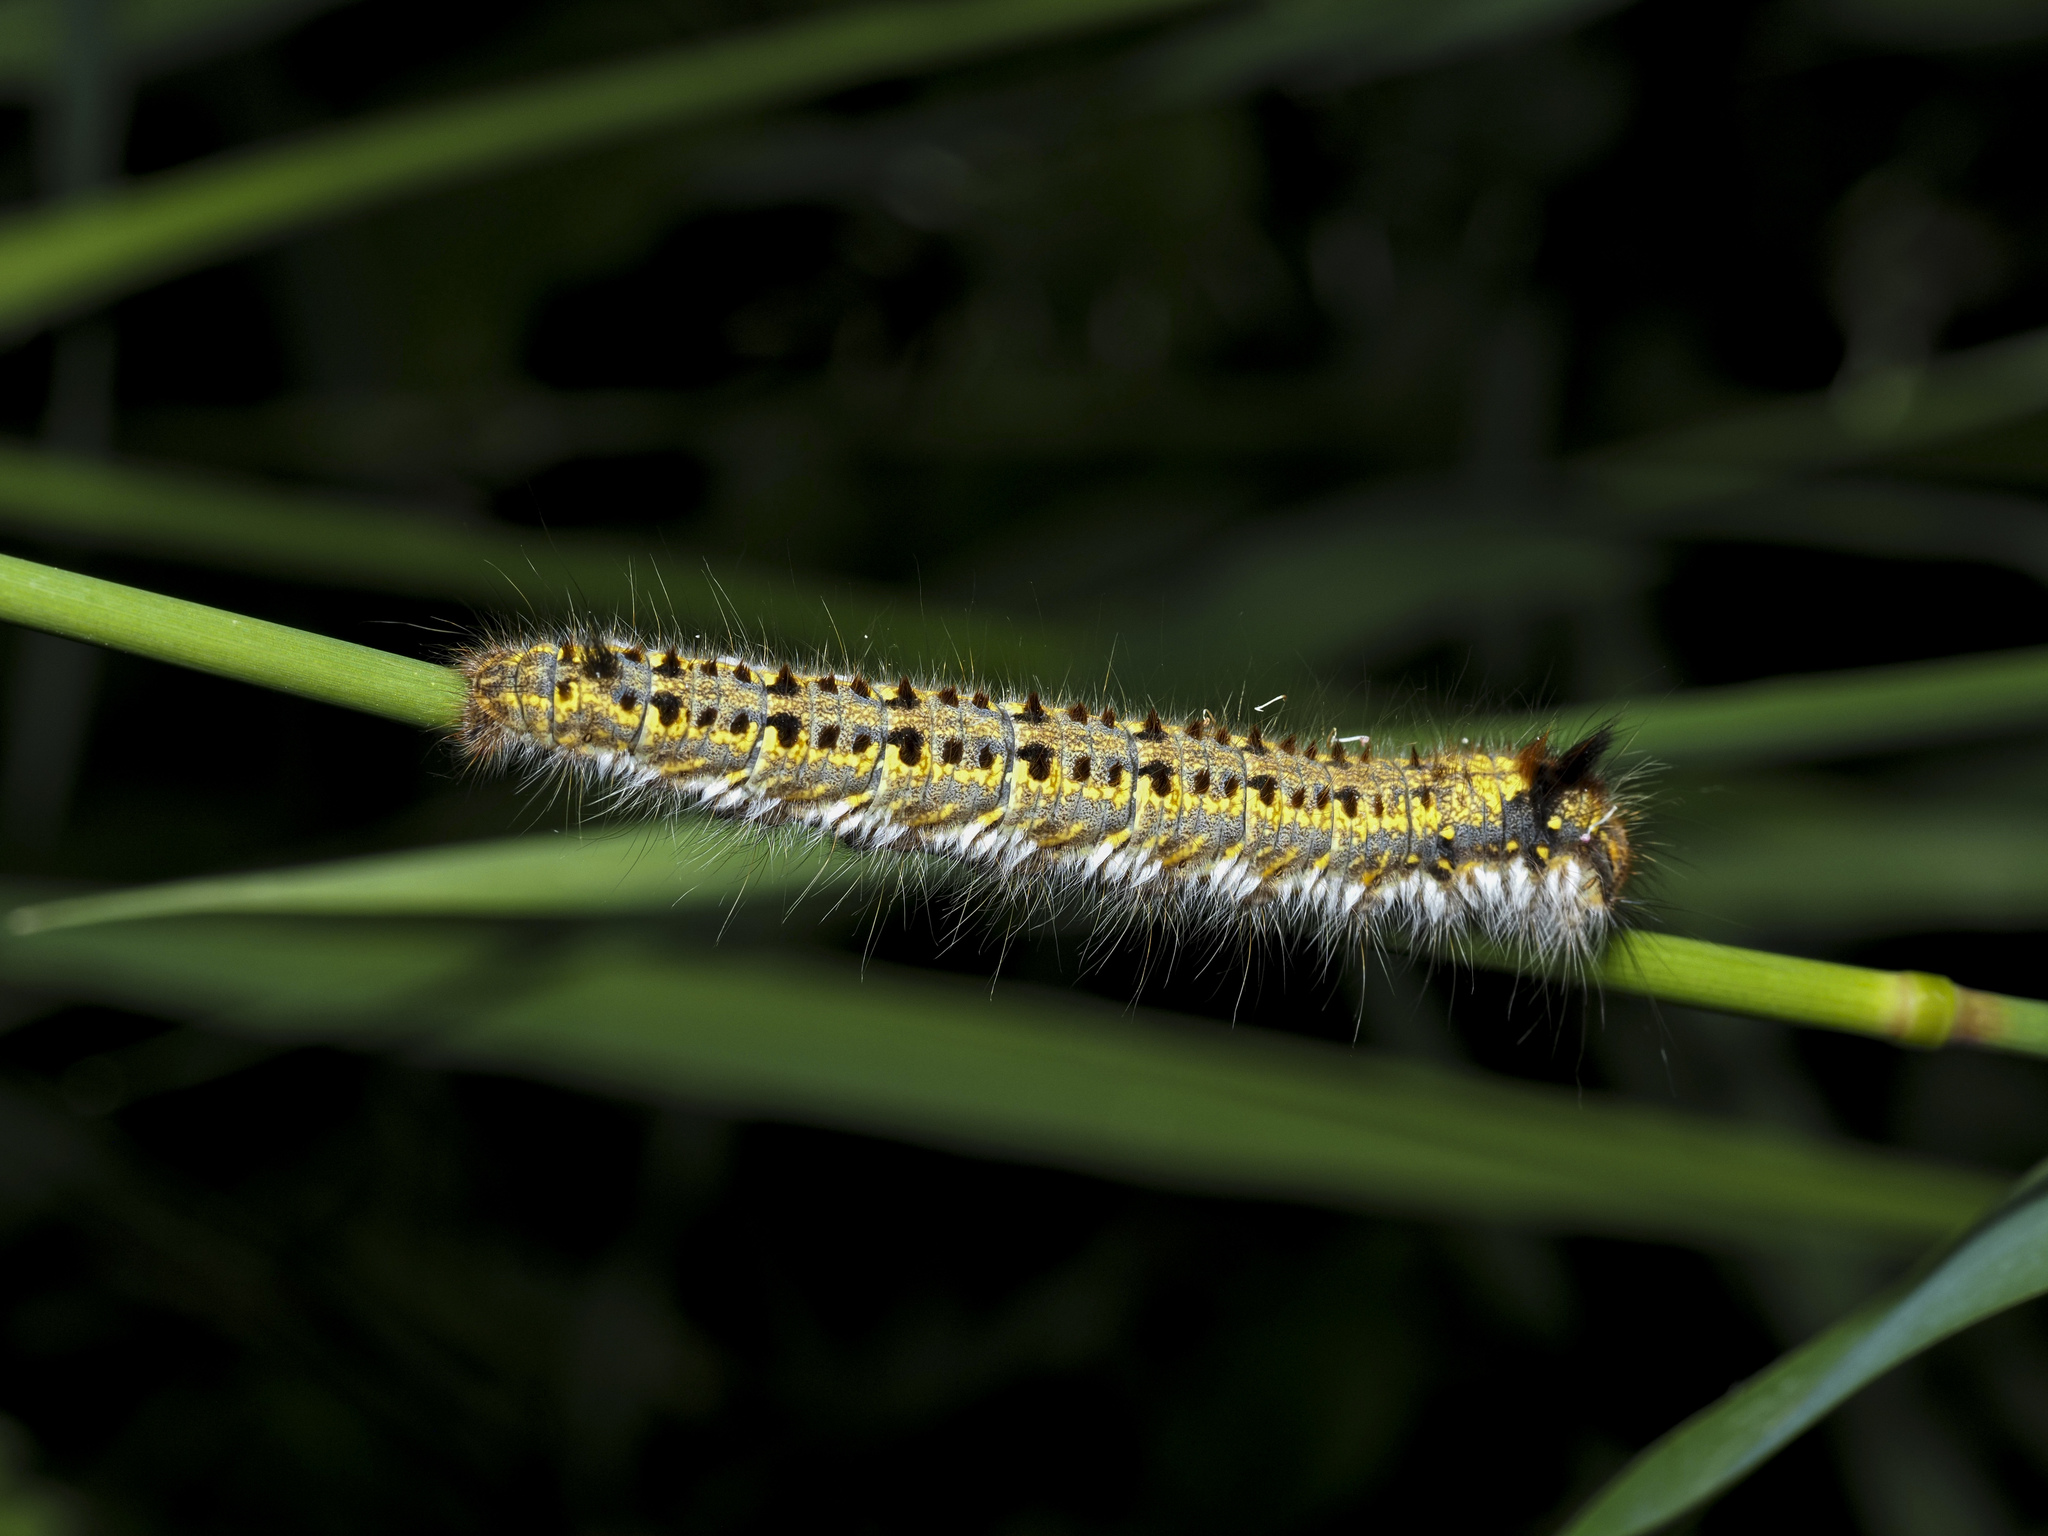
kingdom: Animalia
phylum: Arthropoda
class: Insecta
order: Lepidoptera
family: Lasiocampidae
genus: Euthrix
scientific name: Euthrix potatoria
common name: Drinker
